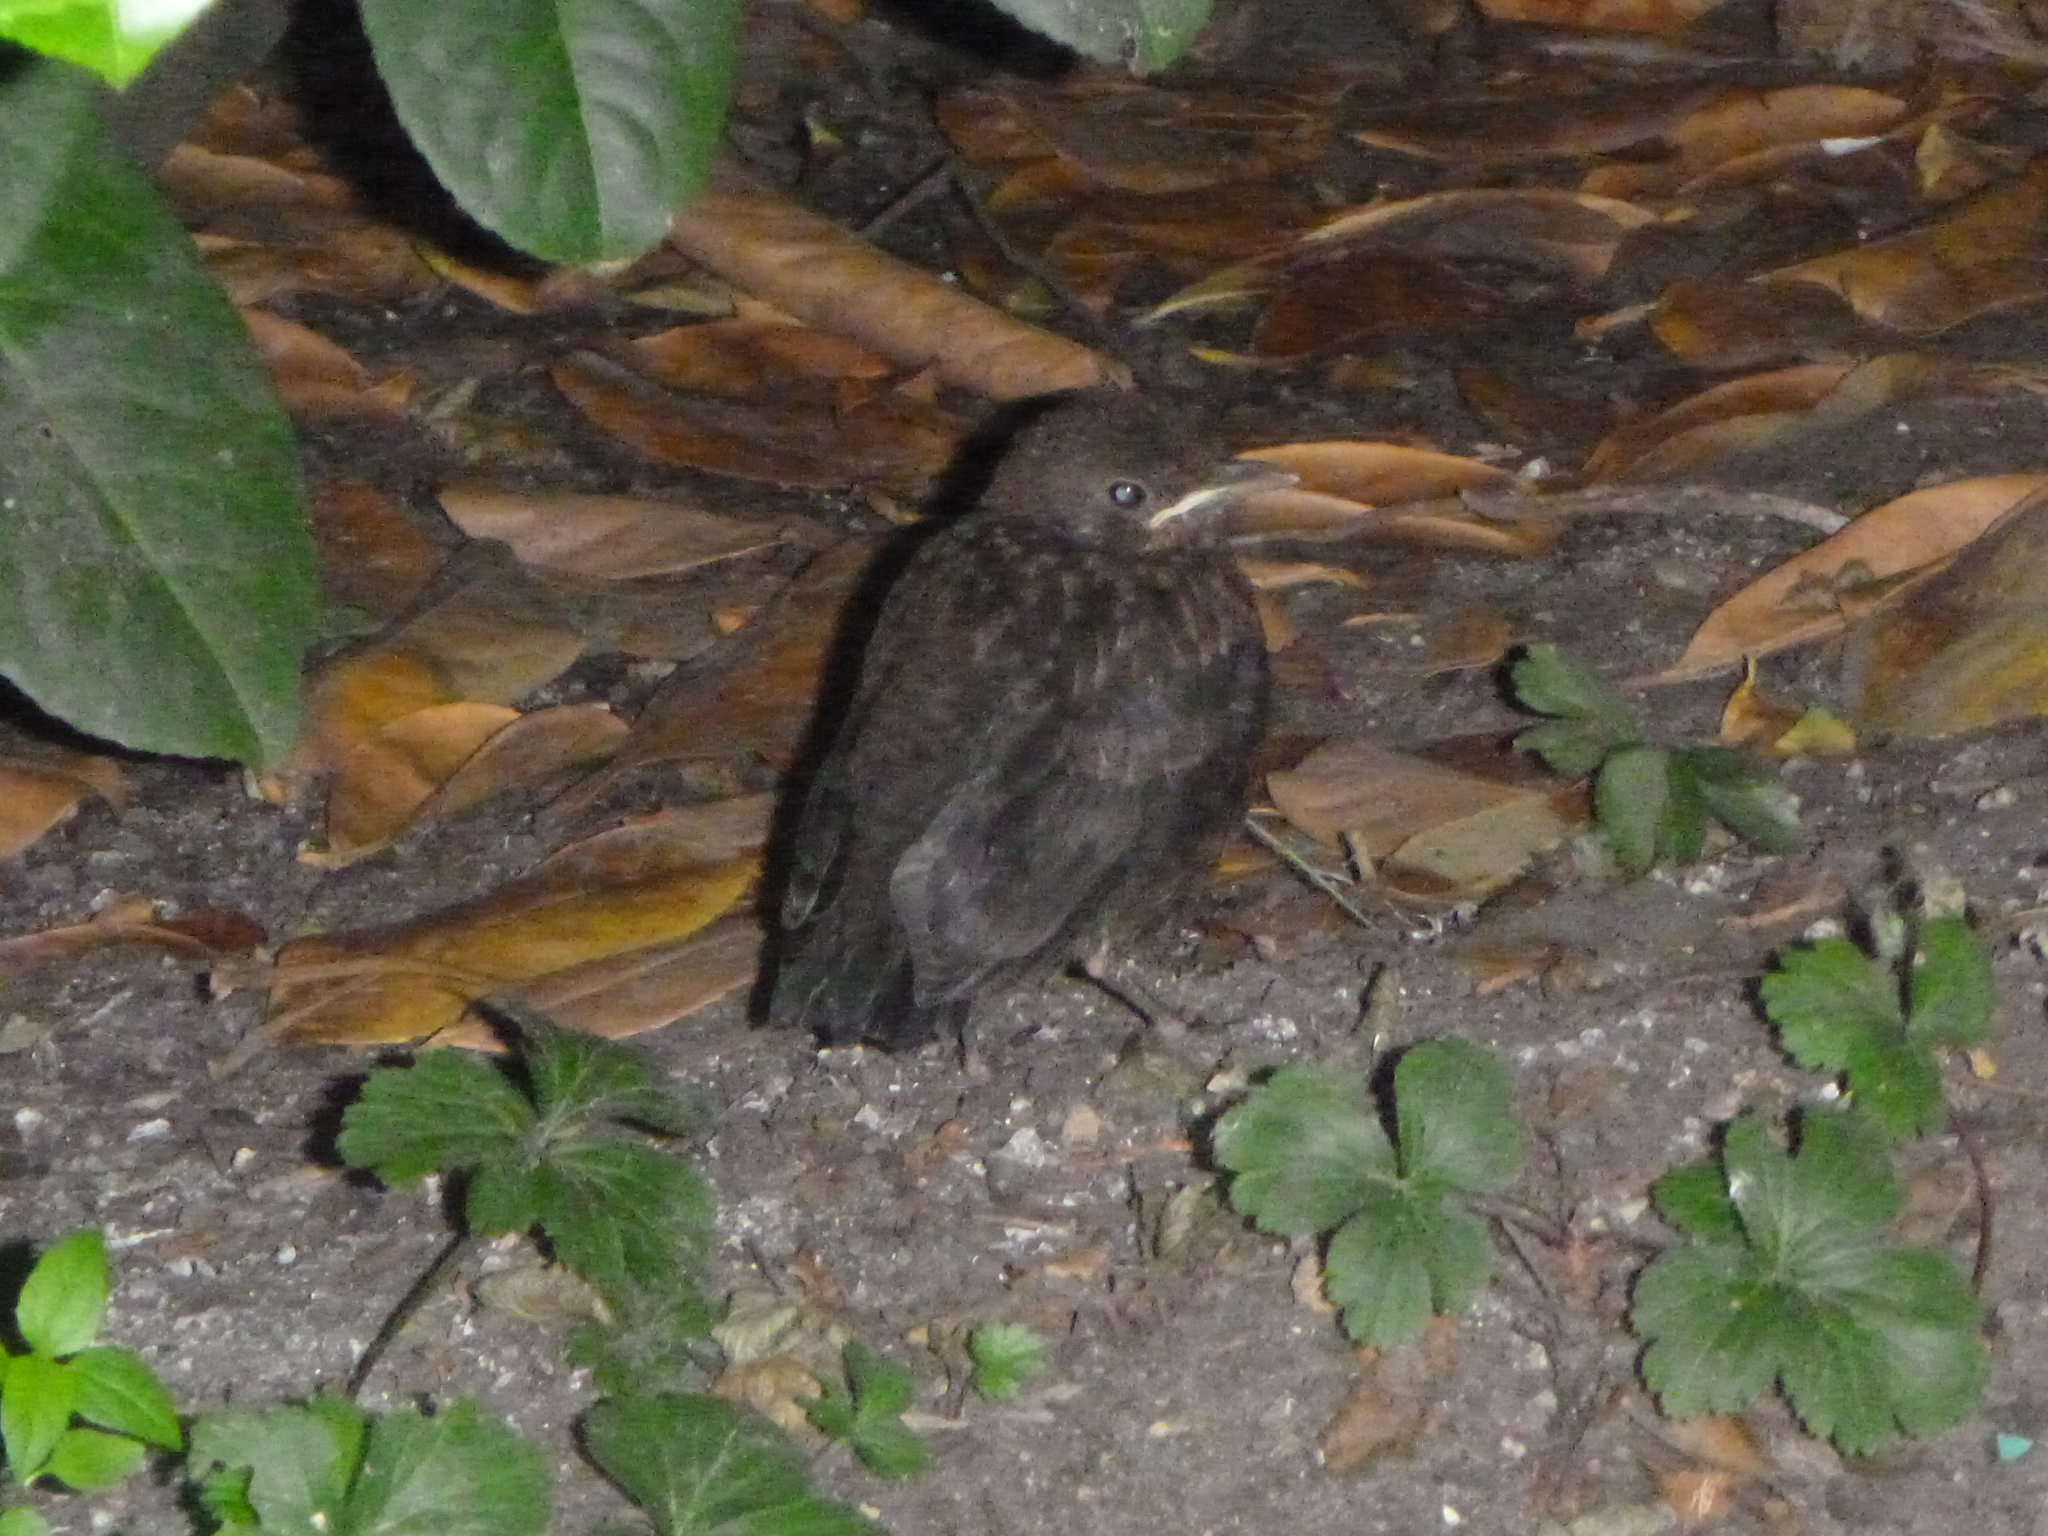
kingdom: Animalia
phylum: Chordata
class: Aves
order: Passeriformes
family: Turdidae
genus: Turdus
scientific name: Turdus merula
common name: Common blackbird
